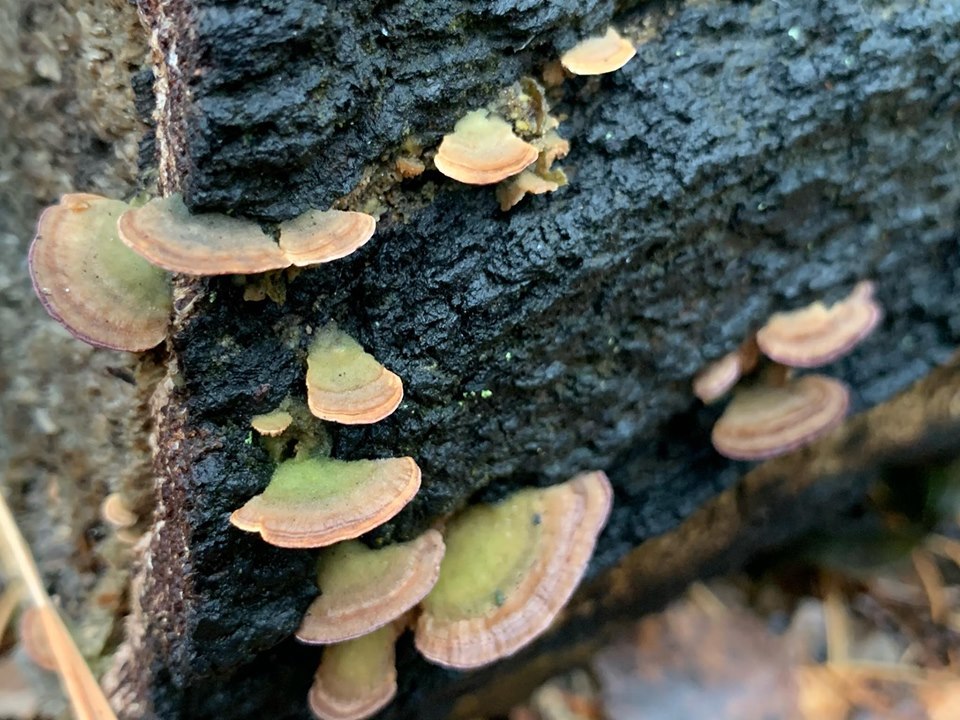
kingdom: Fungi
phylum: Basidiomycota
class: Agaricomycetes
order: Hymenochaetales
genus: Trichaptum
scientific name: Trichaptum biforme
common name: Violet-toothed polypore
